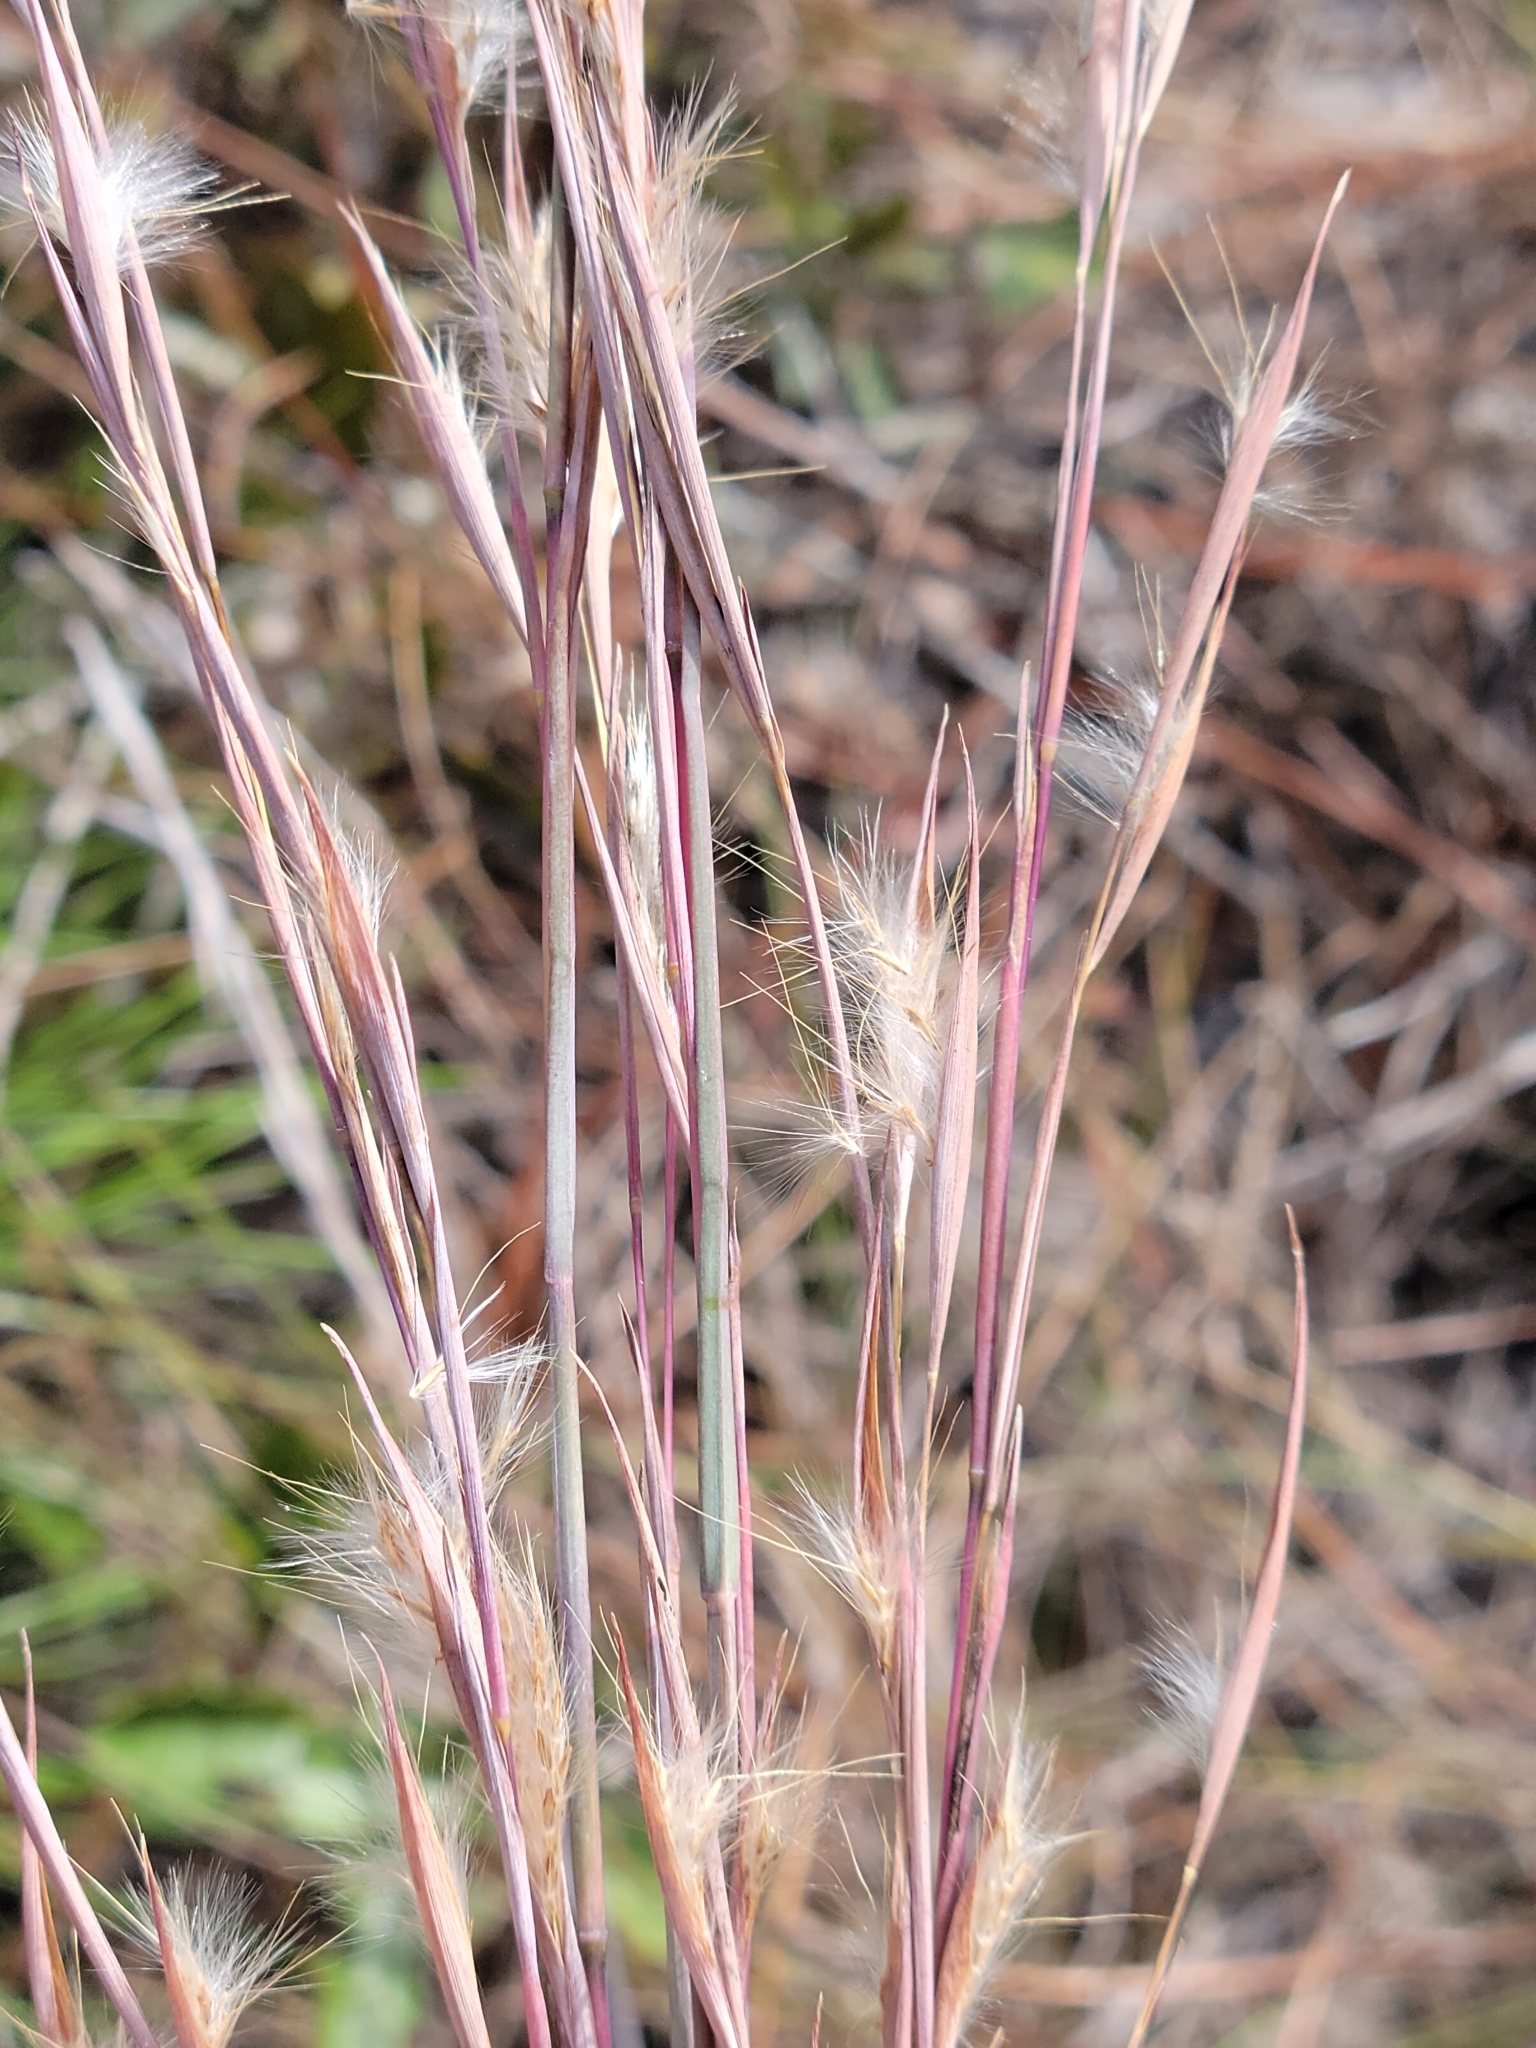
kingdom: Plantae
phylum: Tracheophyta
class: Liliopsida
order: Poales
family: Poaceae
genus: Andropogon
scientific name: Andropogon capillipes
